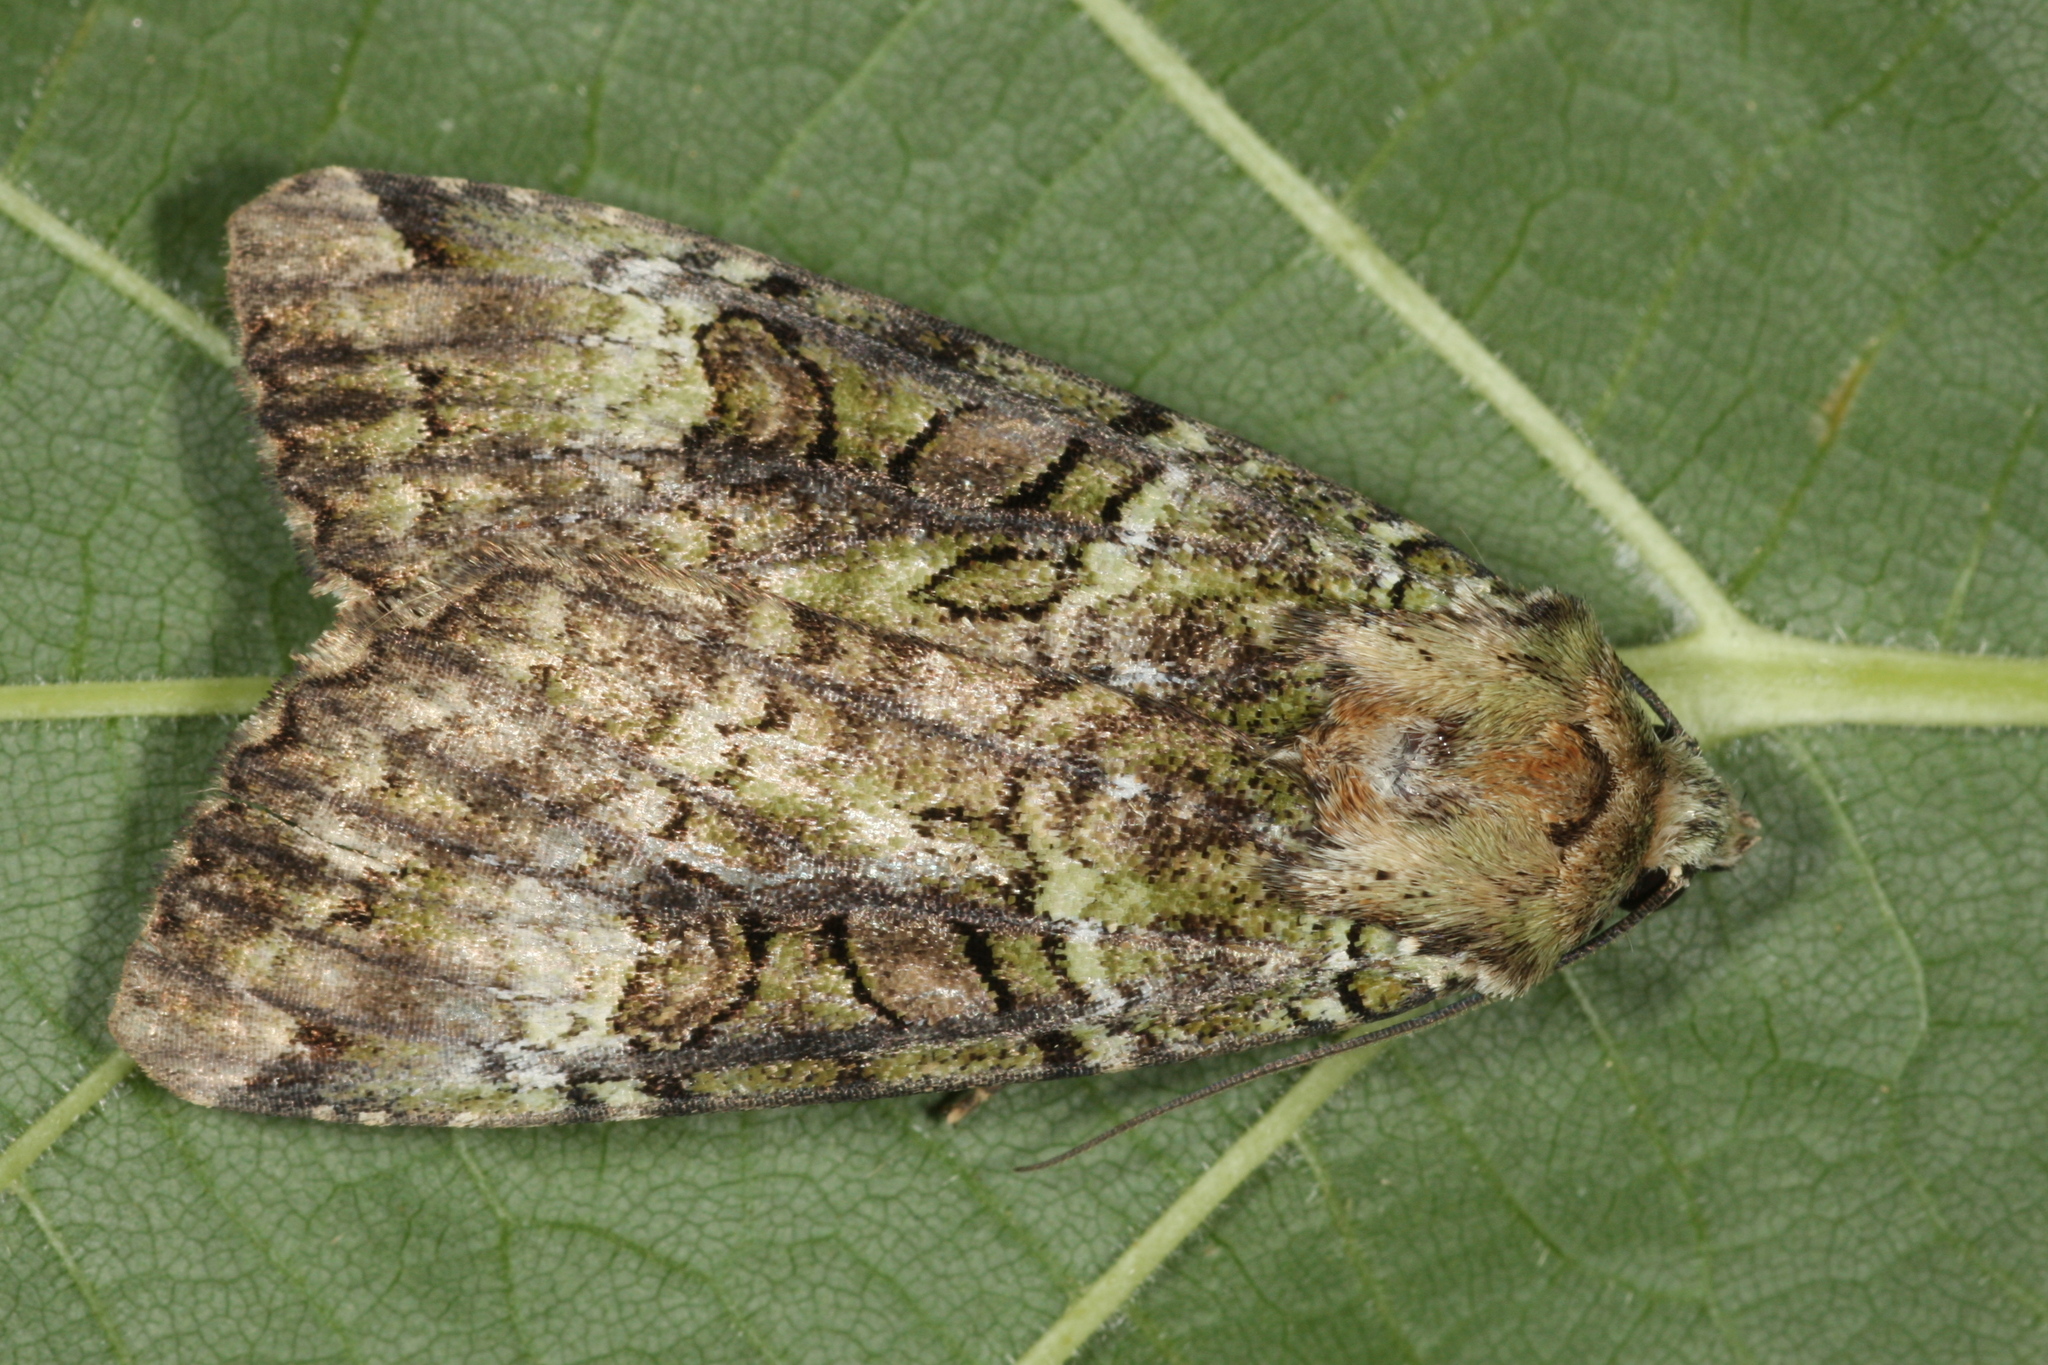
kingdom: Animalia
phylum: Arthropoda
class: Insecta
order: Lepidoptera
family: Noctuidae
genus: Anaplectoides
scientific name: Anaplectoides prasina
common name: Green arches
